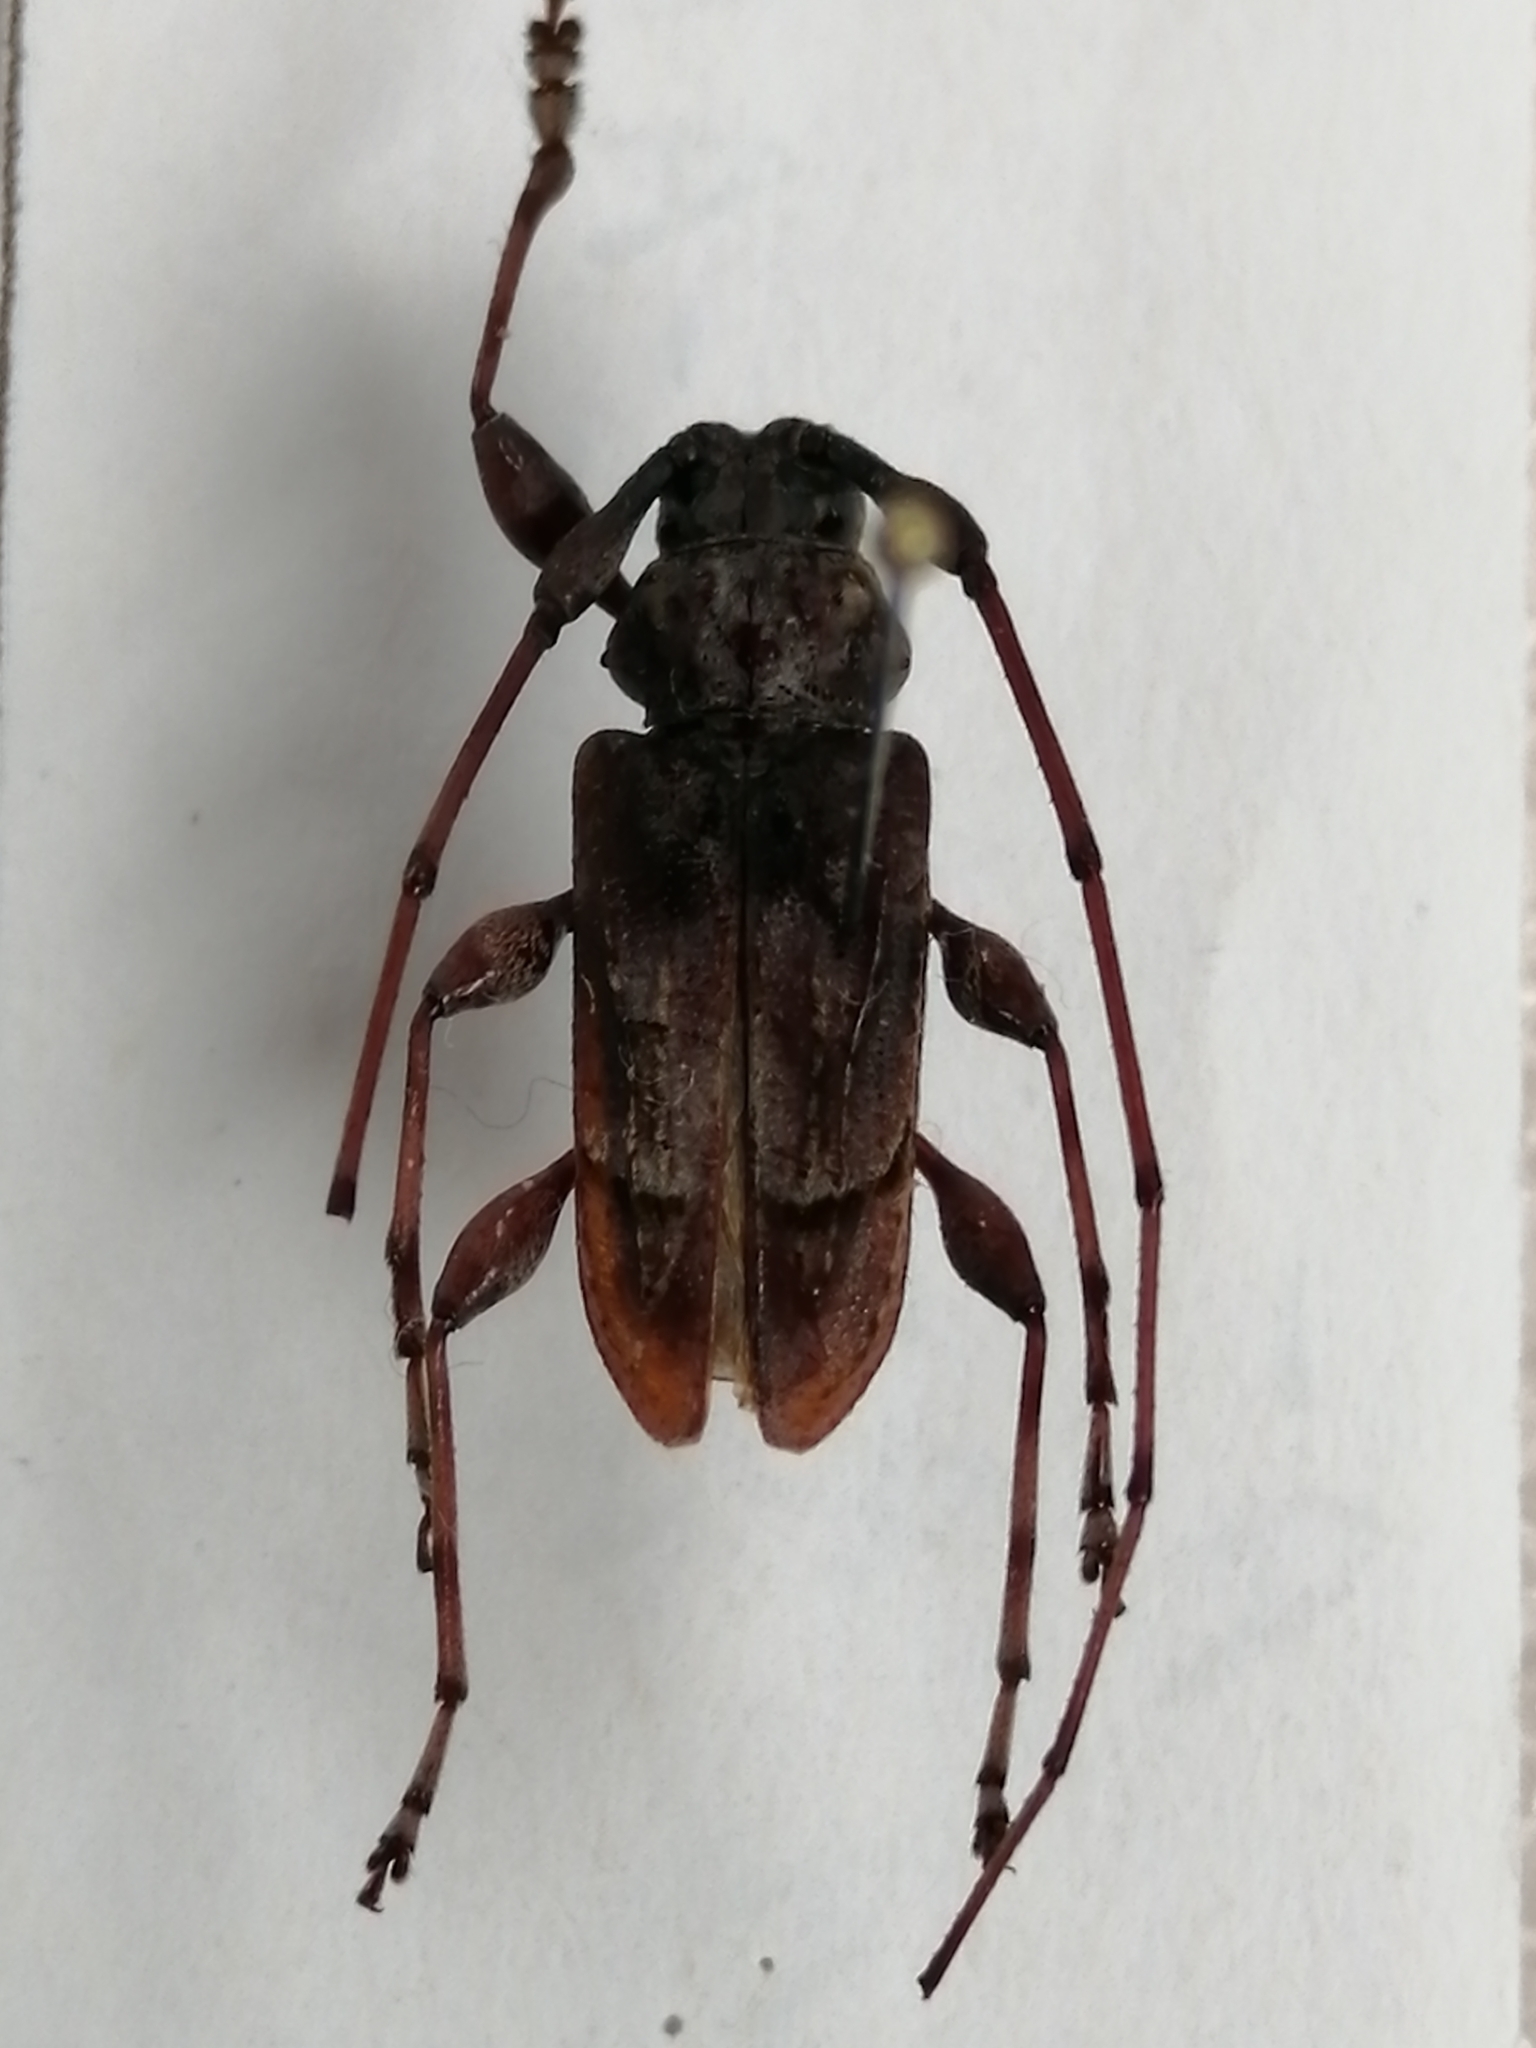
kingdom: Animalia
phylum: Arthropoda
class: Insecta
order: Coleoptera
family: Cerambycidae
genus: Olenosus
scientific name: Olenosus serrimanus
